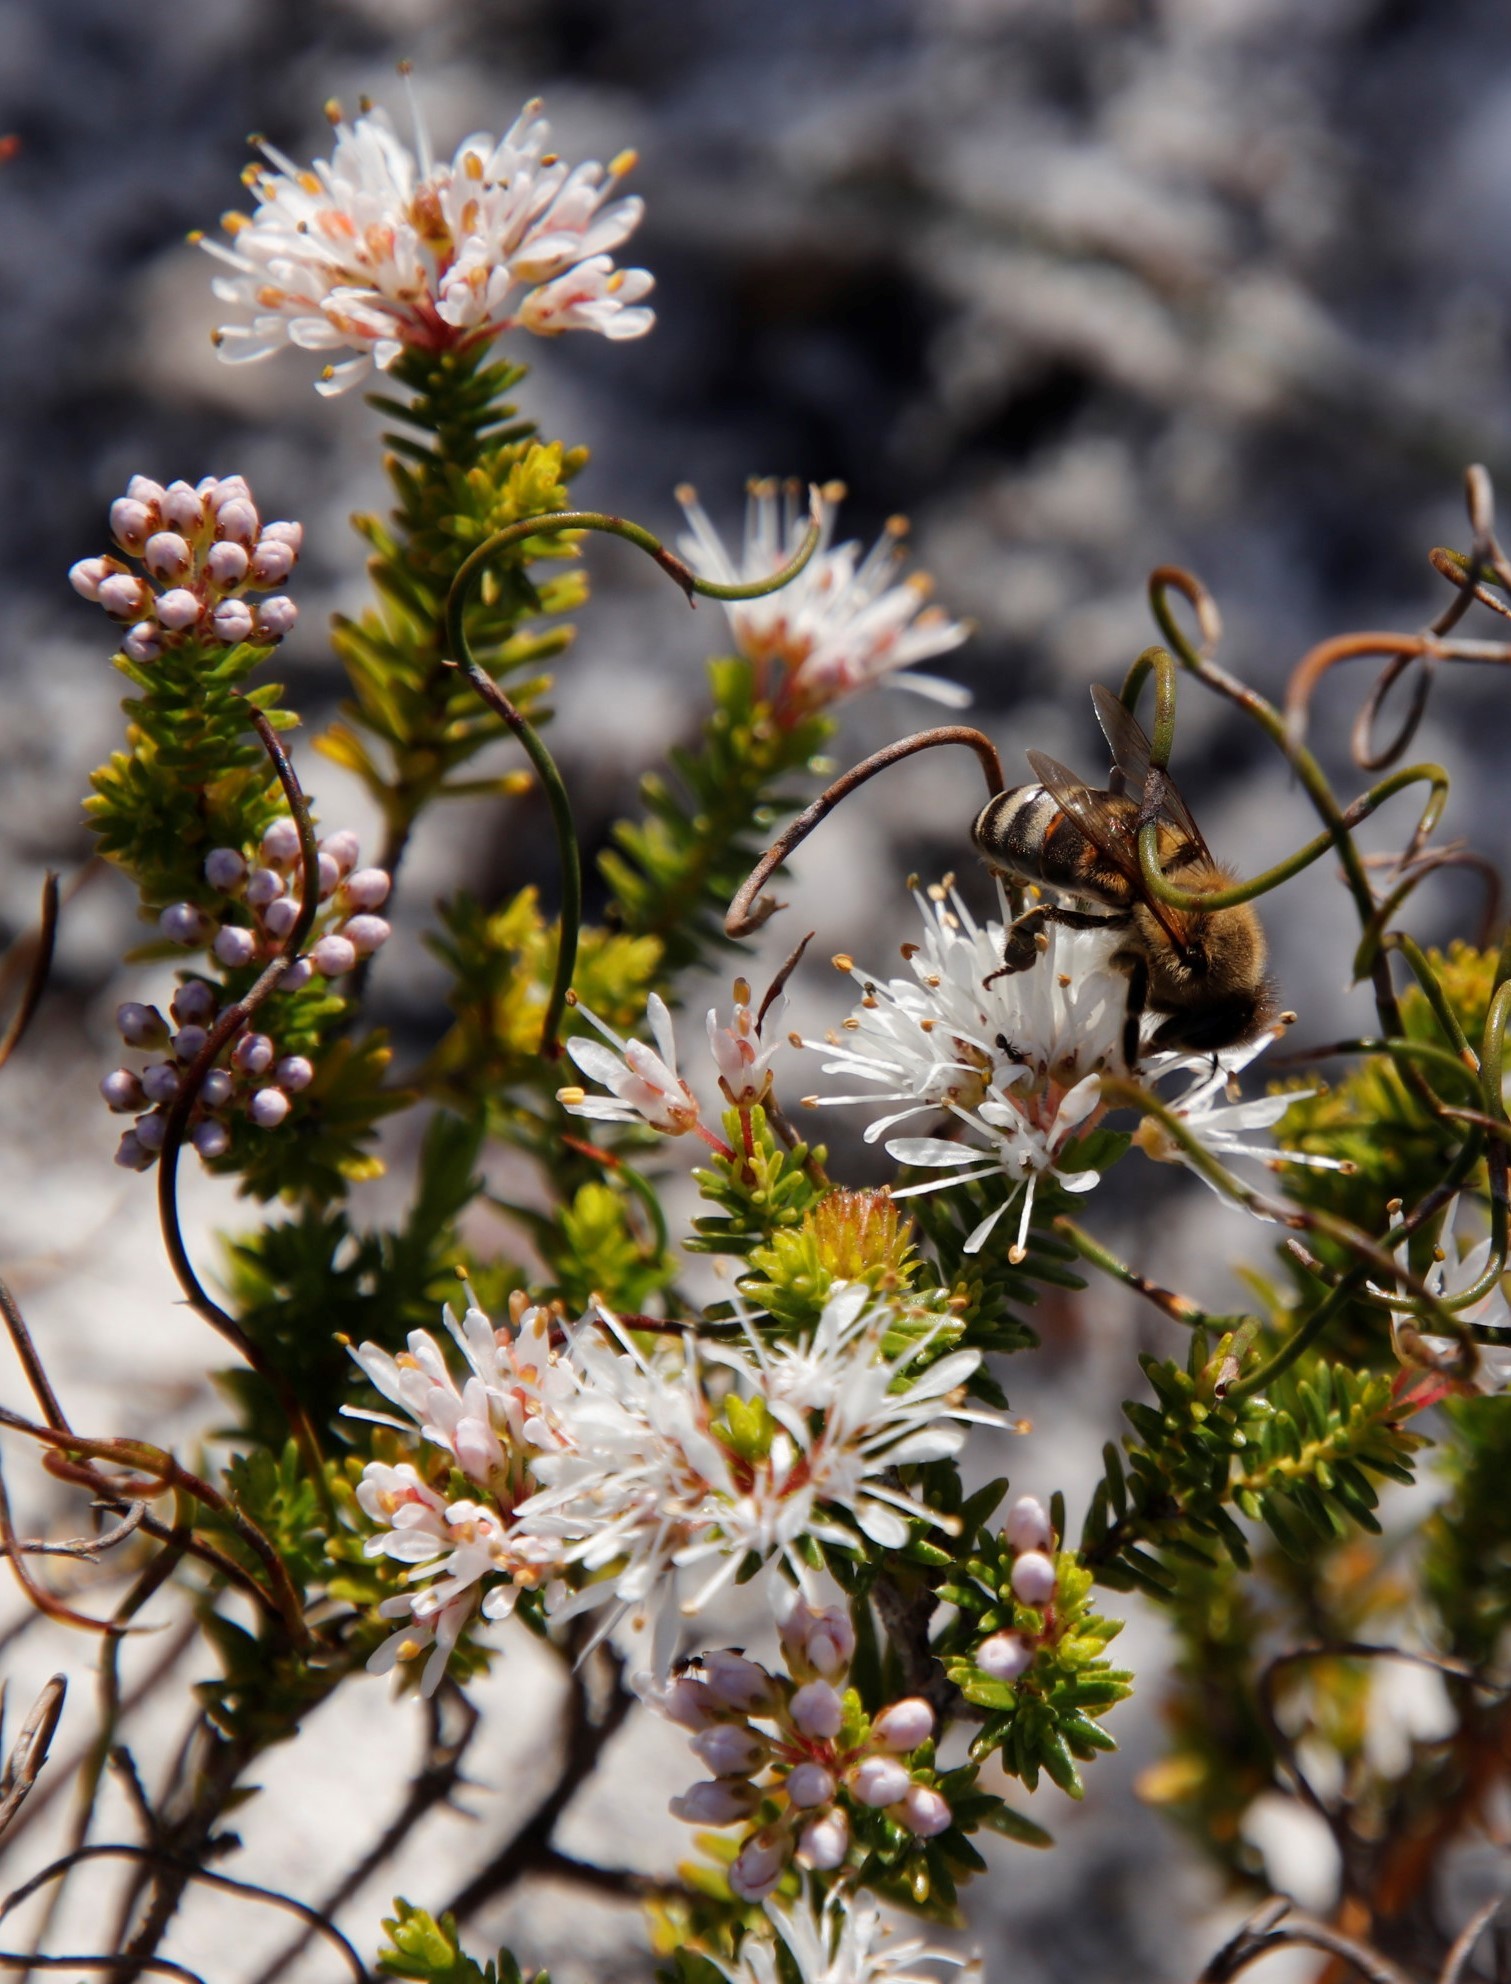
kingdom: Animalia
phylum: Arthropoda
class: Insecta
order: Hymenoptera
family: Apidae
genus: Apis
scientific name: Apis mellifera
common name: Honey bee
